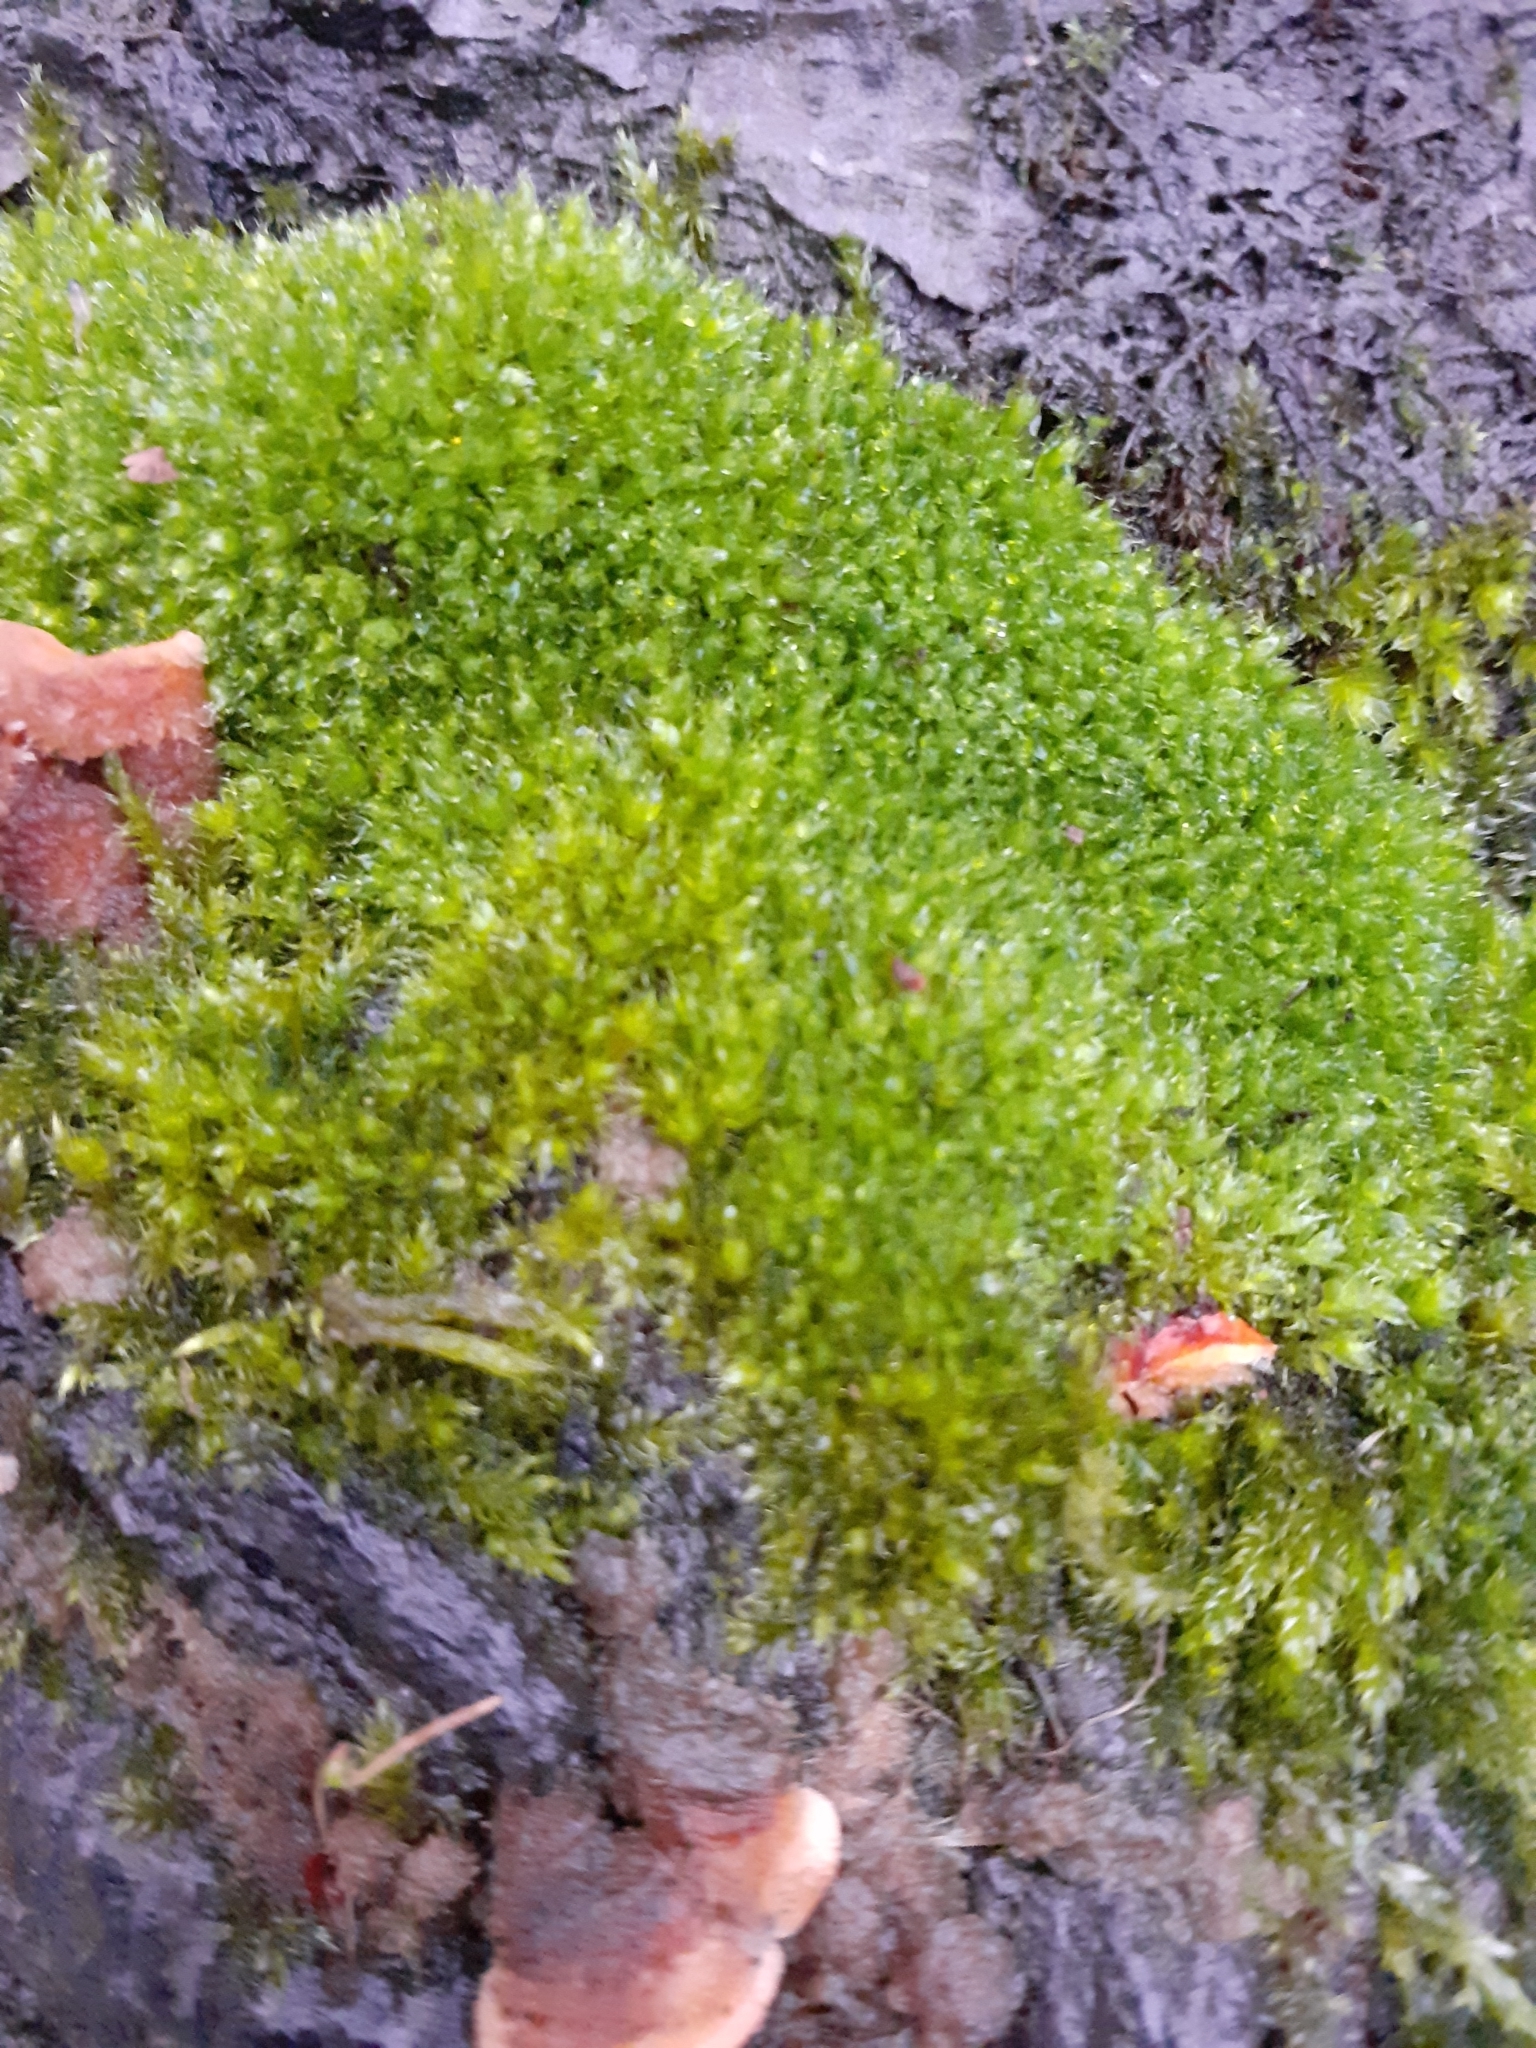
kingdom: Plantae
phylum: Bryophyta
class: Bryopsida
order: Bryales
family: Bryaceae
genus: Rosulabryum
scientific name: Rosulabryum capillare
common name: Capillary thread-moss
